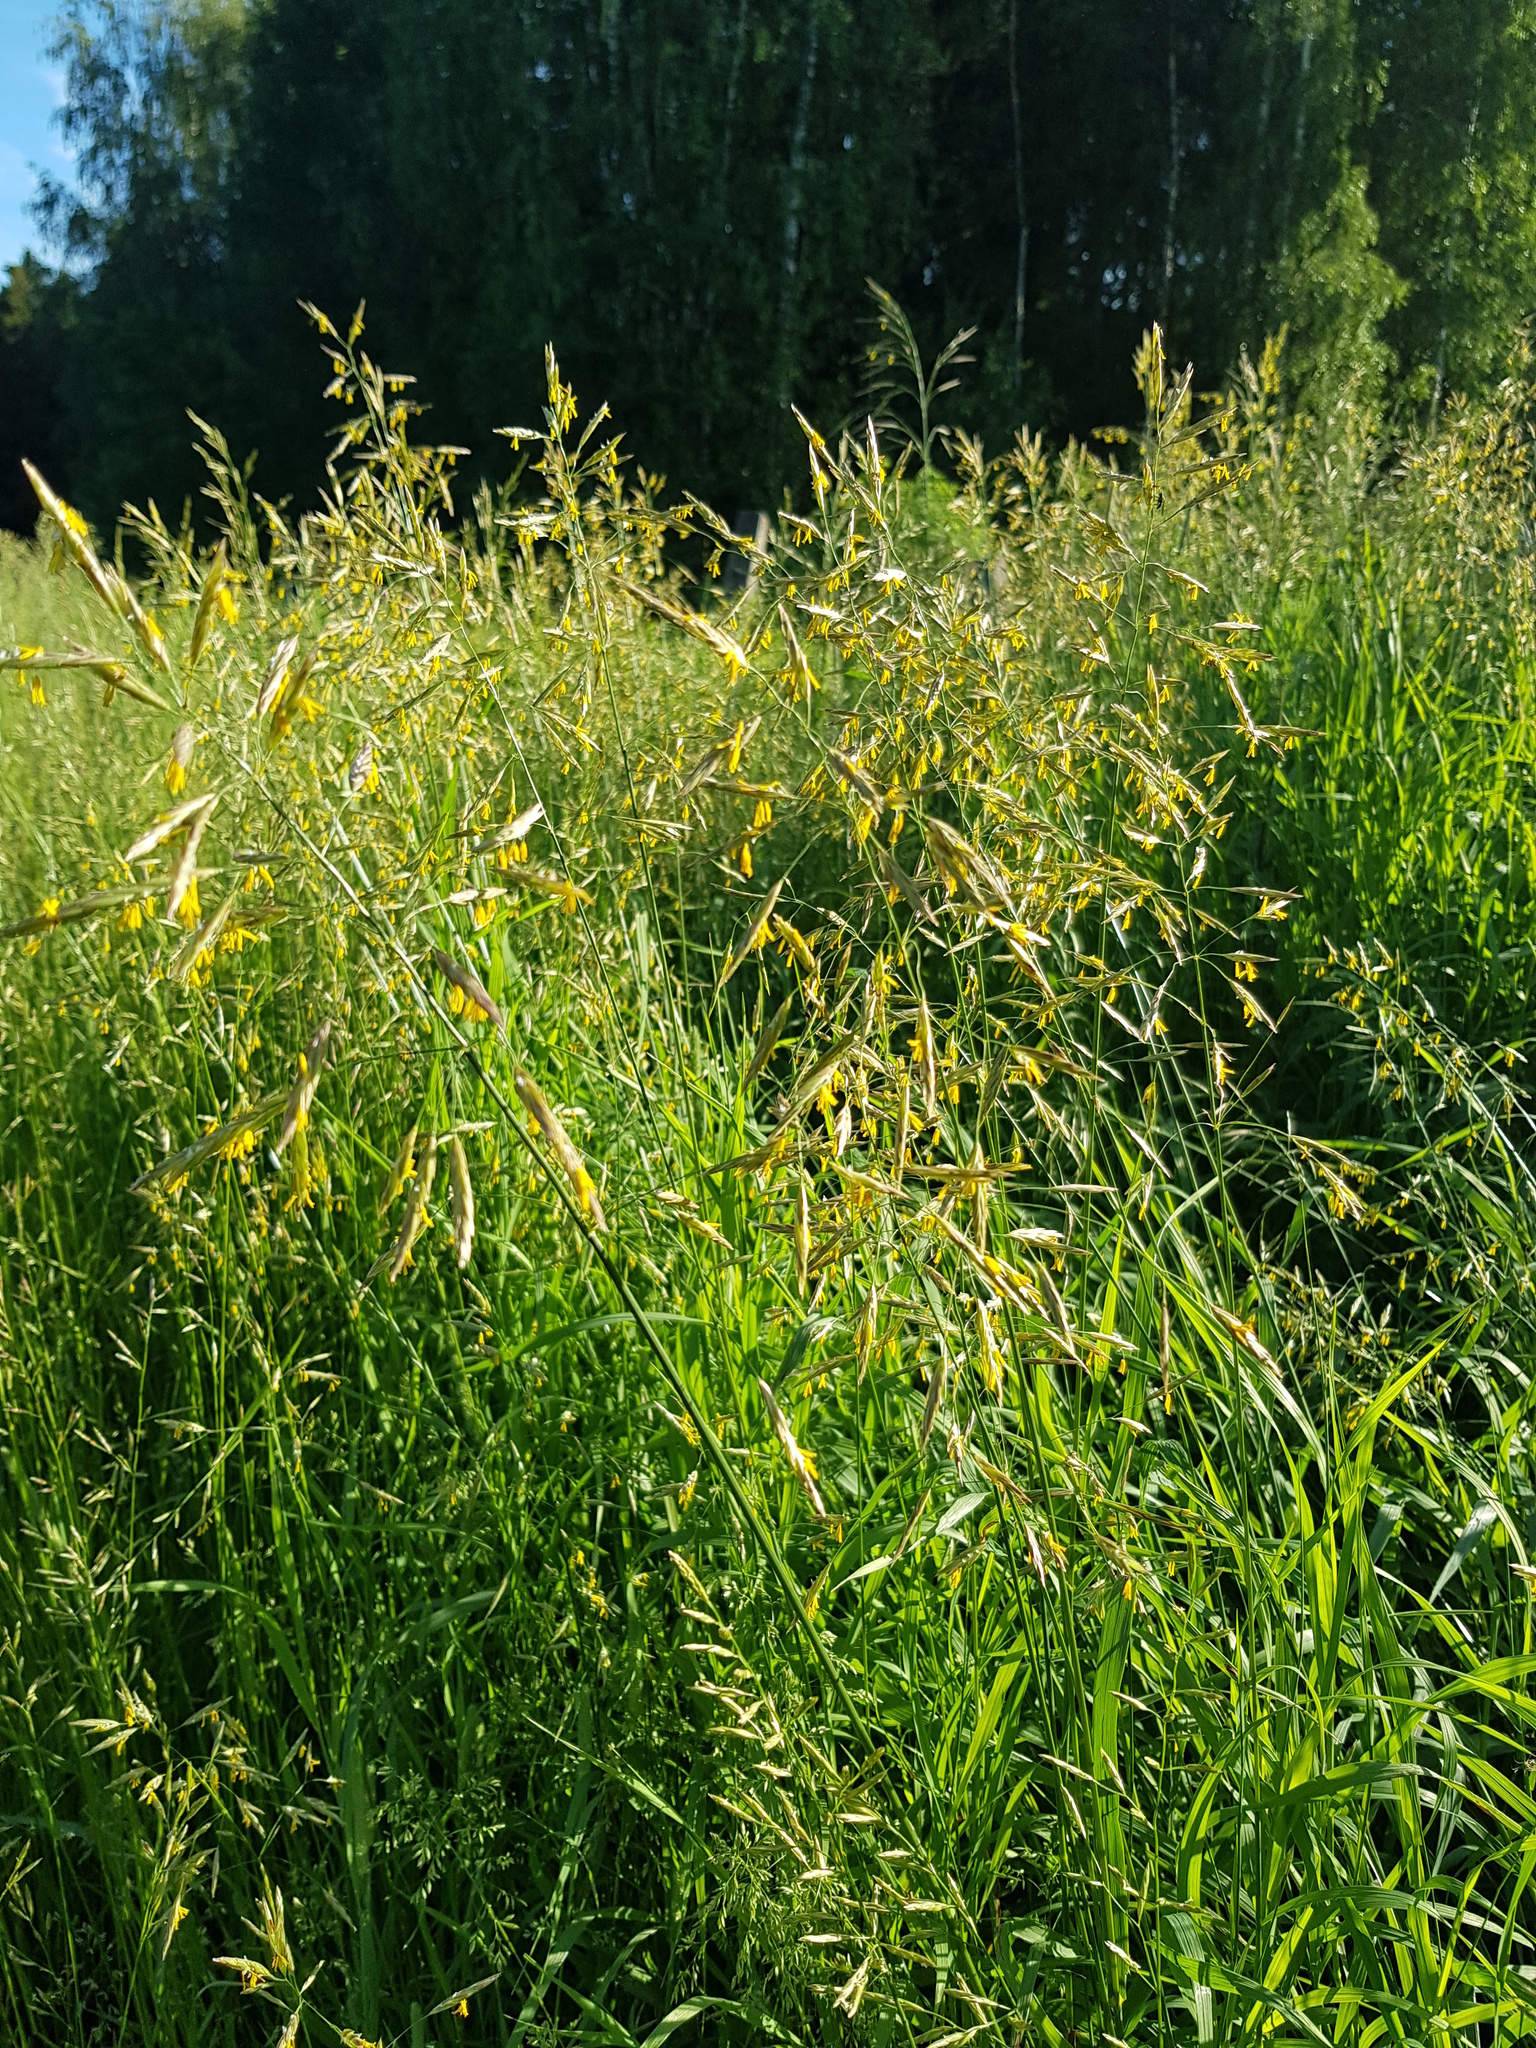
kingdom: Plantae
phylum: Tracheophyta
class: Liliopsida
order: Poales
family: Poaceae
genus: Bromus
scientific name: Bromus inermis
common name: Smooth brome
